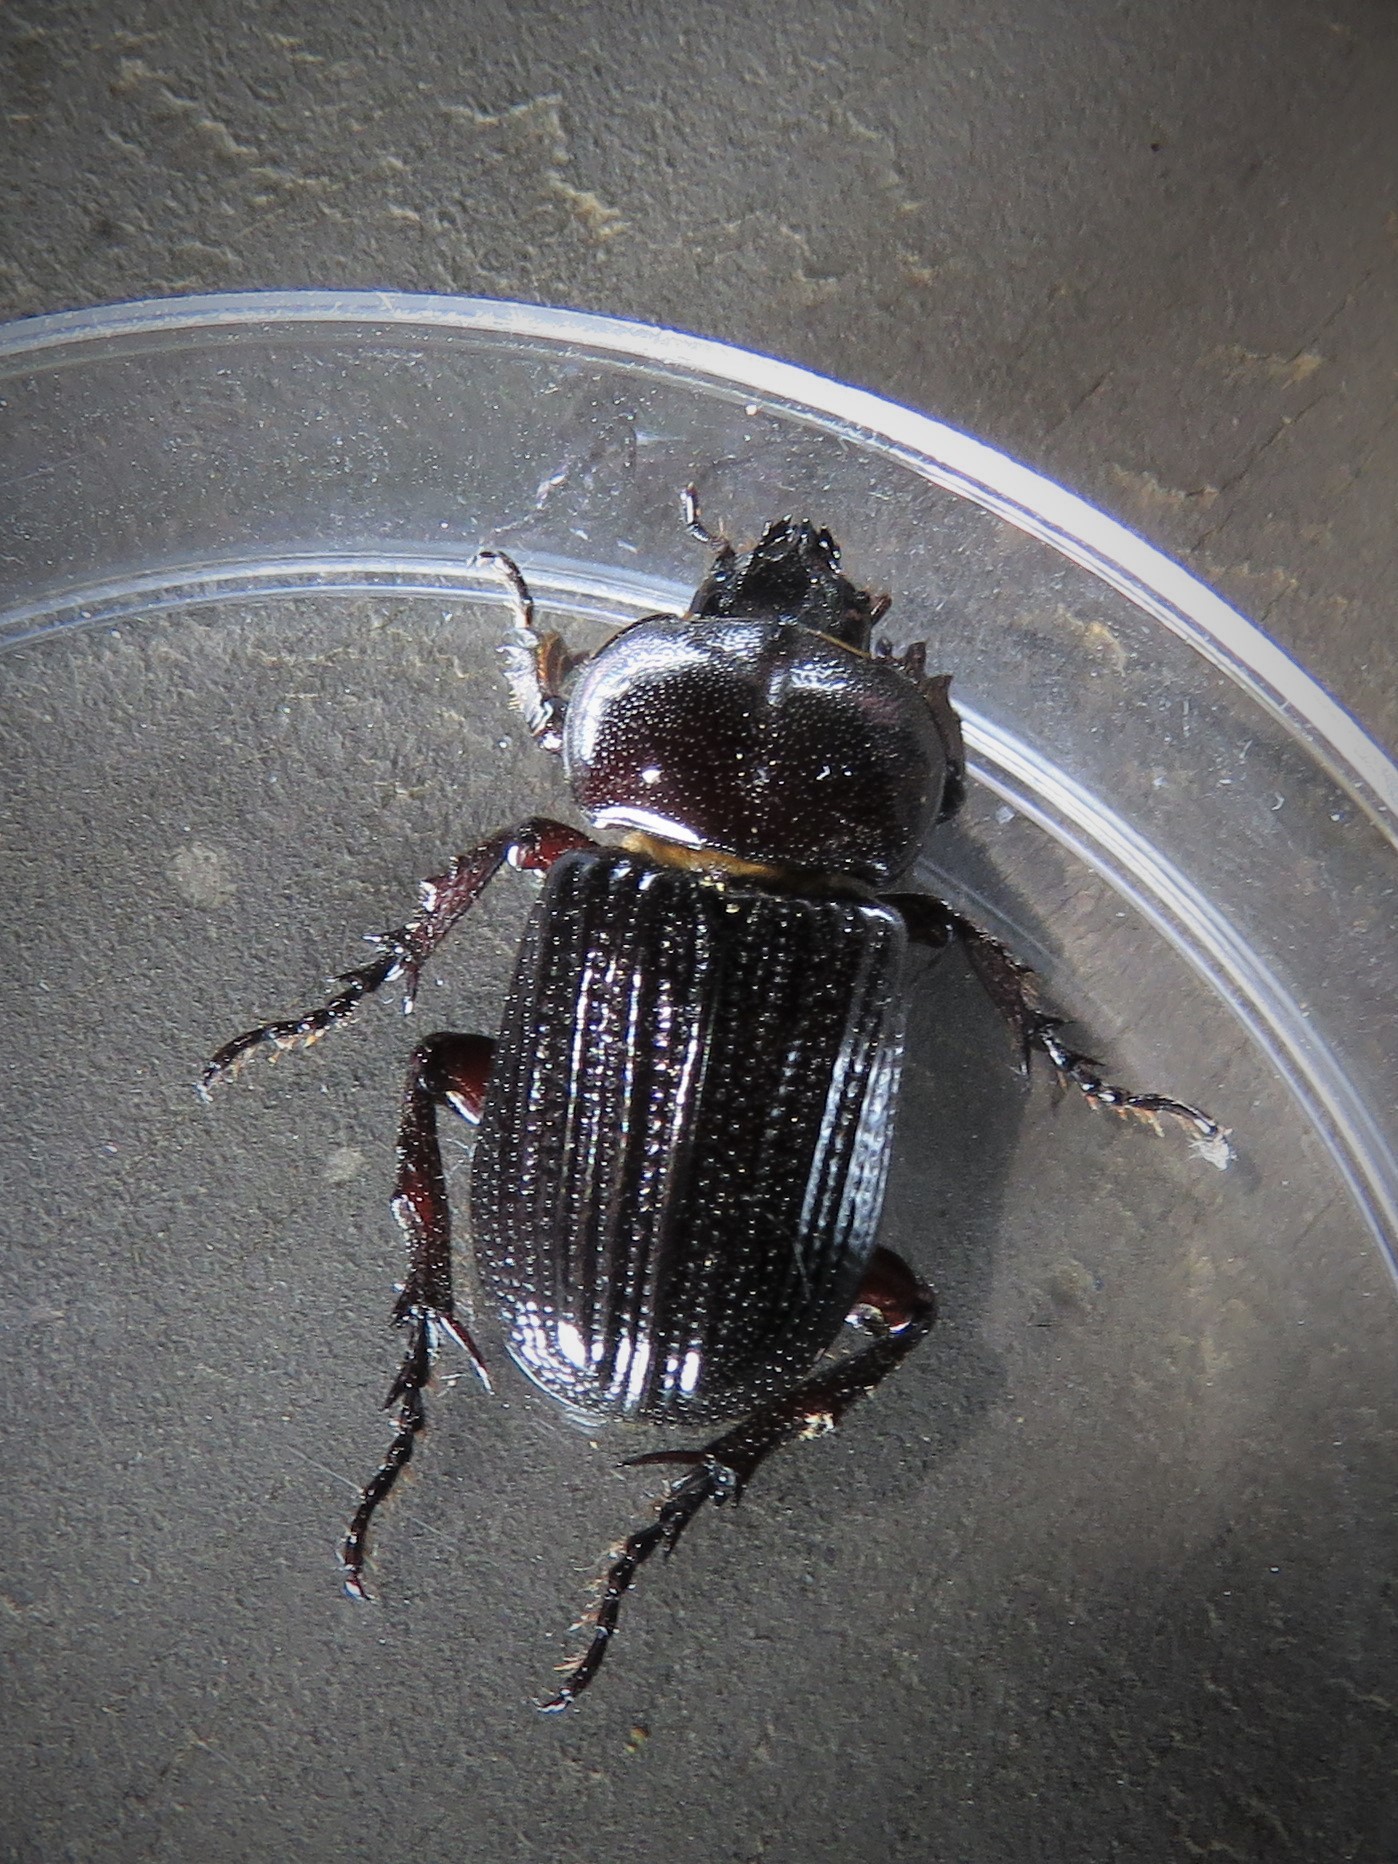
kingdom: Animalia
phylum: Arthropoda
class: Insecta
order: Coleoptera
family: Scarabaeidae
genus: Phileurus
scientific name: Phileurus valgus
